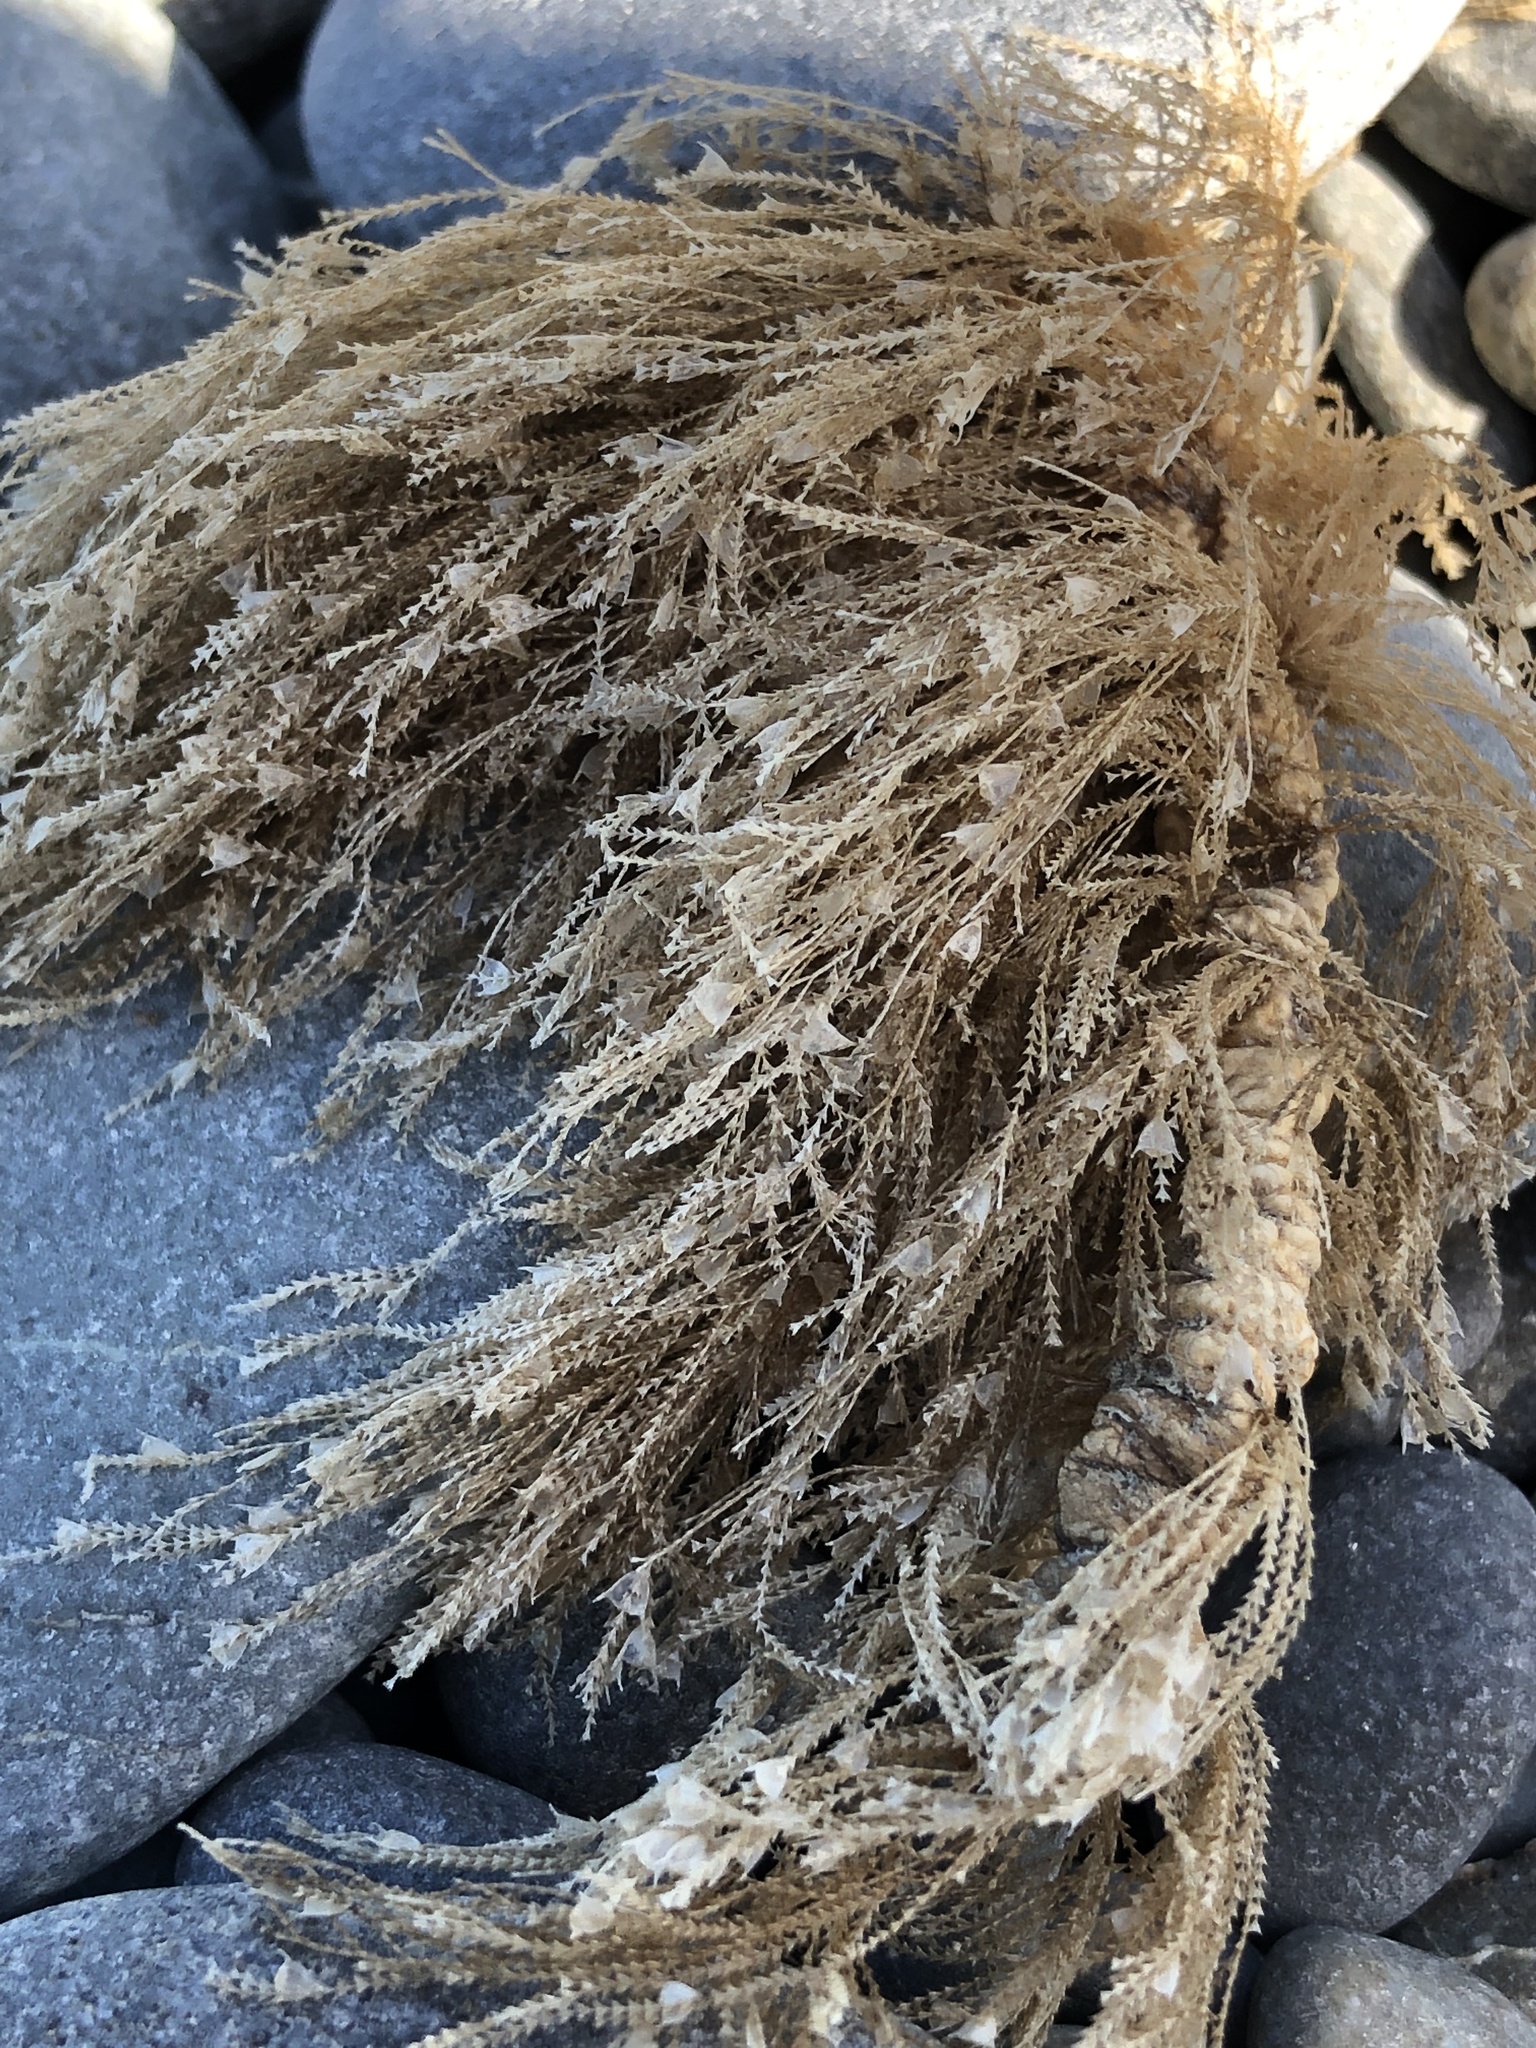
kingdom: Animalia
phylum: Cnidaria
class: Hydrozoa
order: Leptothecata
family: Sertulariidae
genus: Amphisbetia
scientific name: Amphisbetia bispinosa
